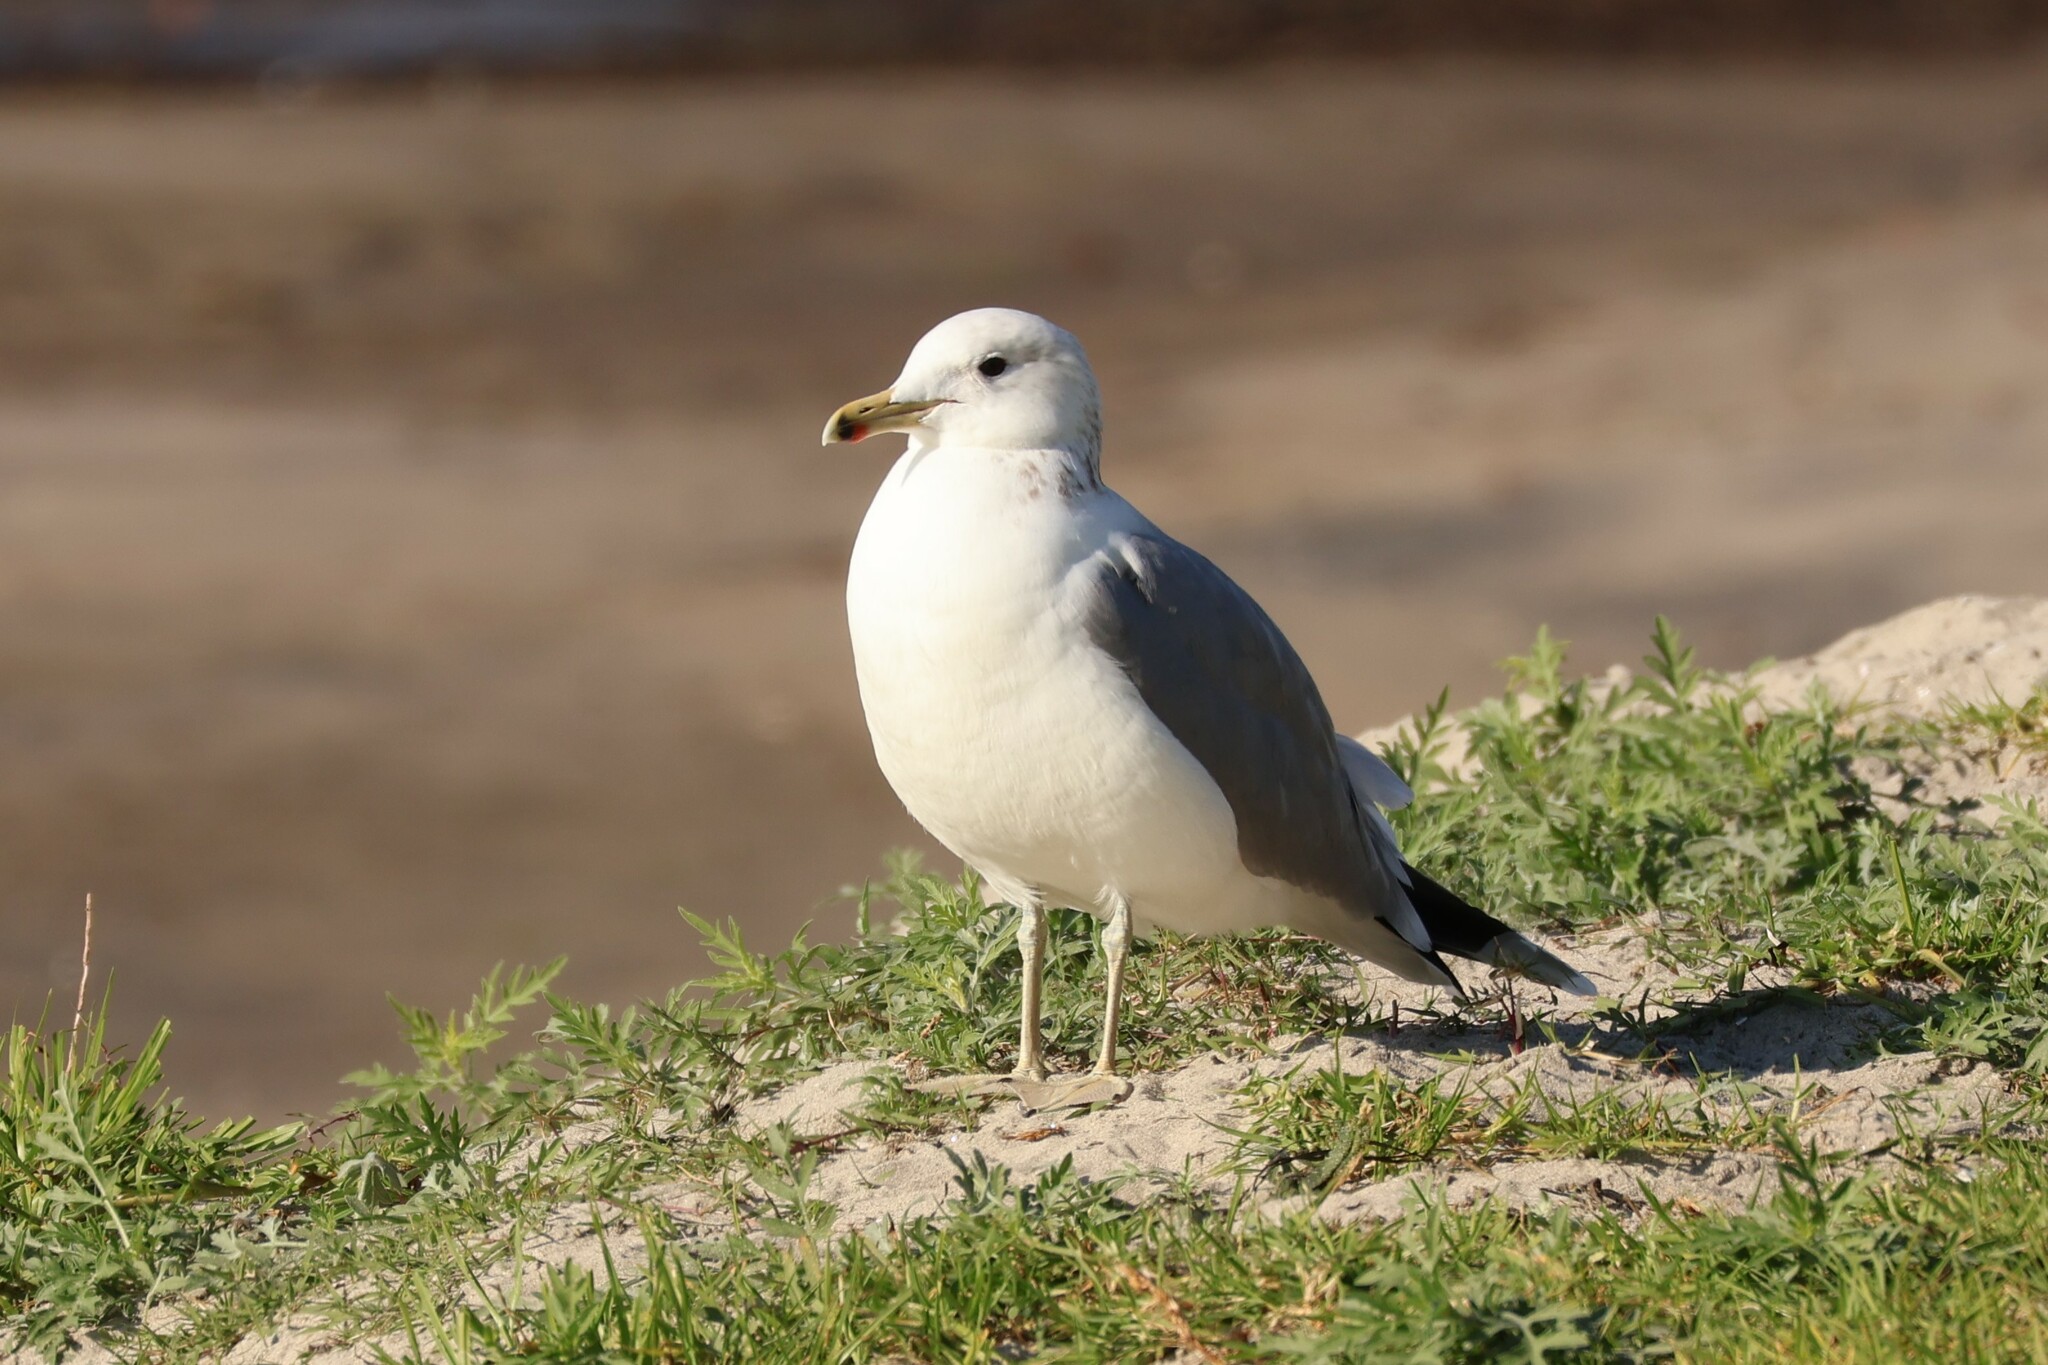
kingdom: Animalia
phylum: Chordata
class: Aves
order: Charadriiformes
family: Laridae
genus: Larus
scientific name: Larus californicus
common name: California gull
